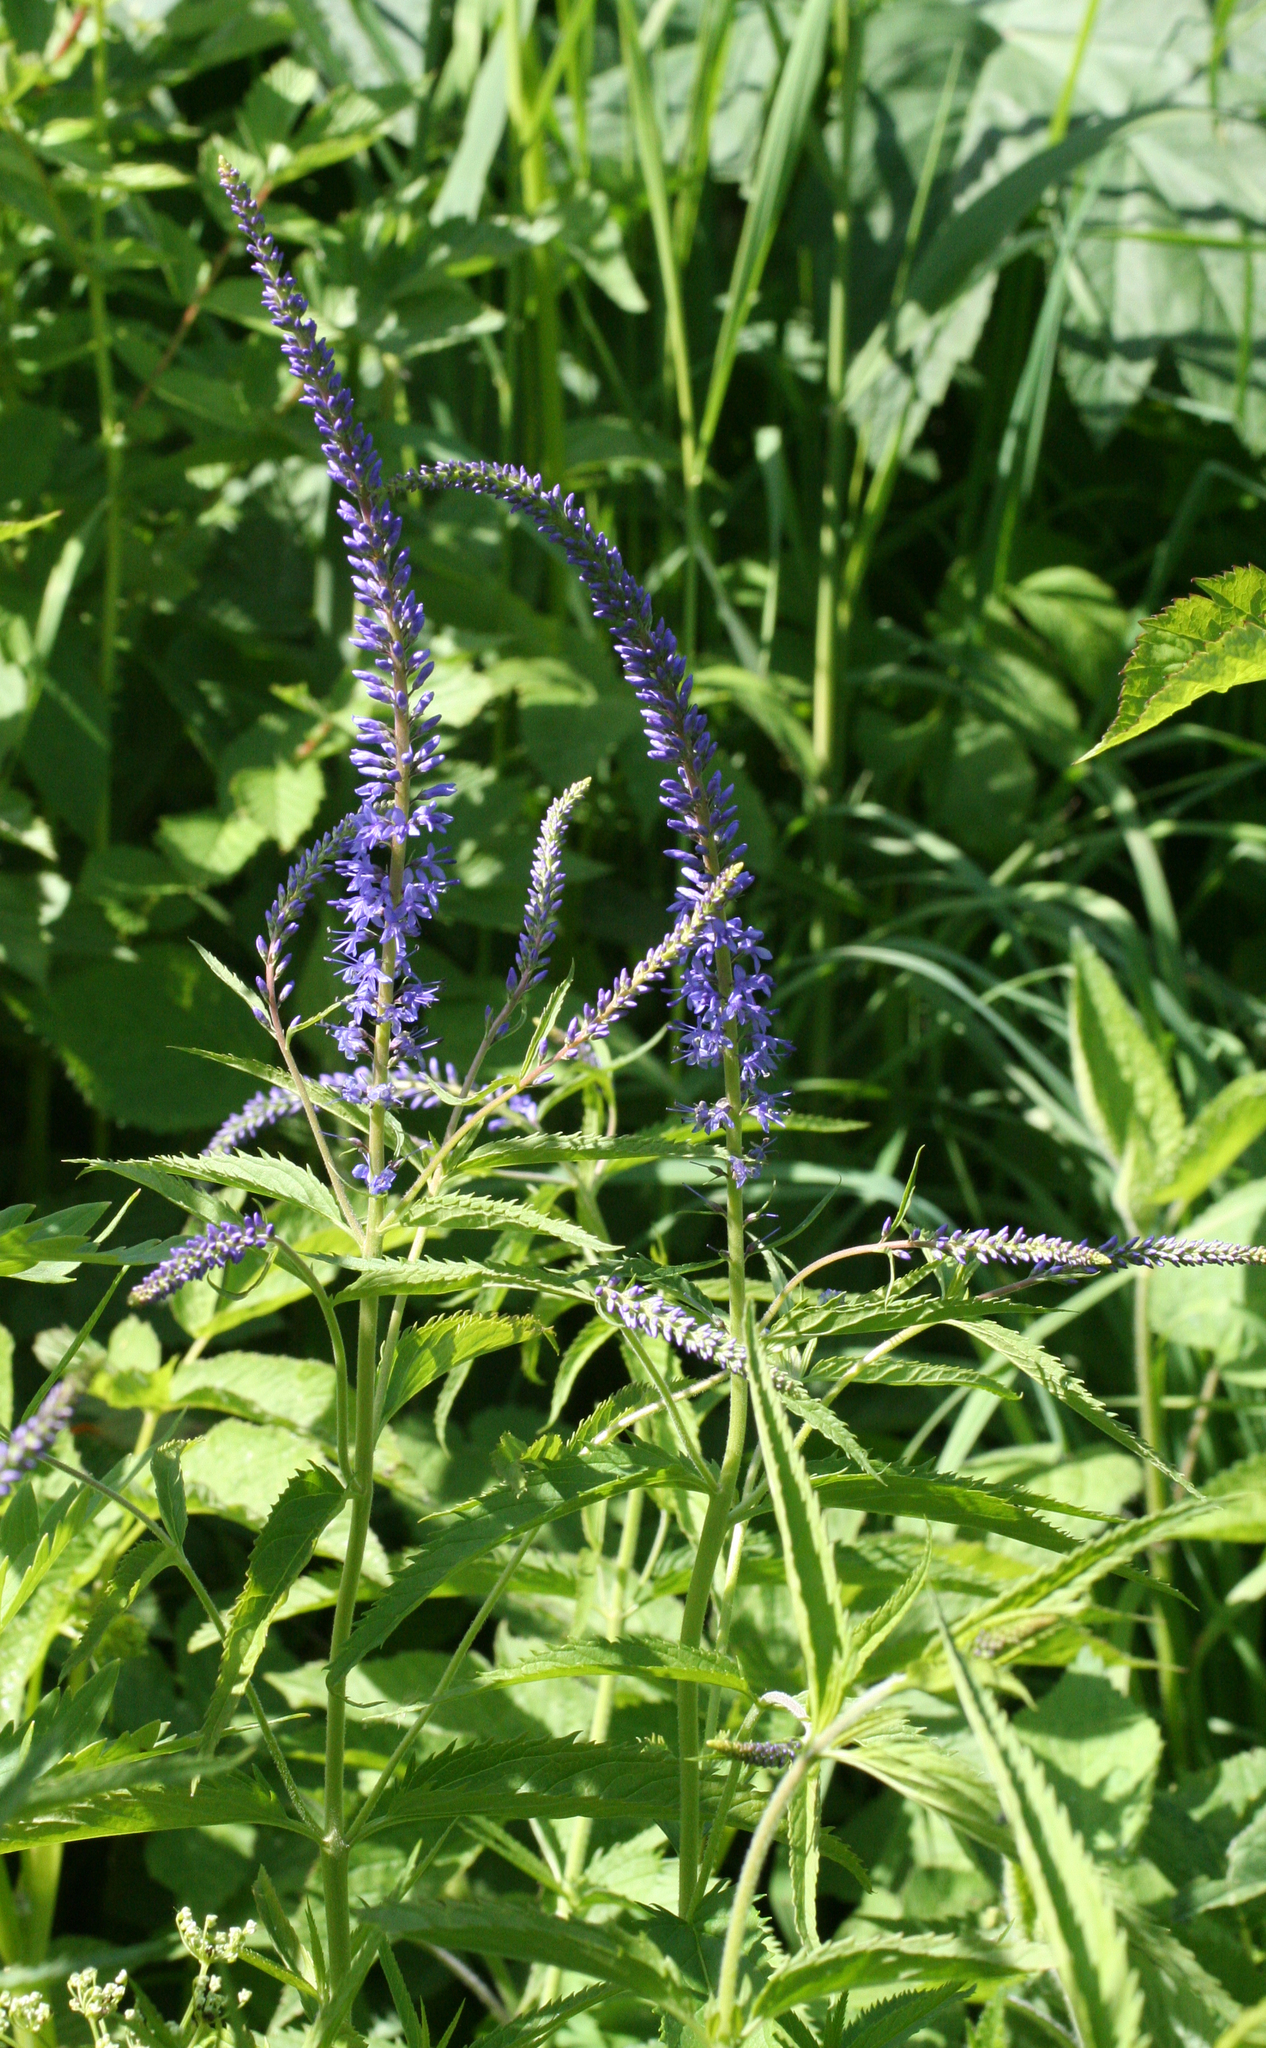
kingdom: Plantae
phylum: Tracheophyta
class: Magnoliopsida
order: Lamiales
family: Plantaginaceae
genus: Veronica
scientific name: Veronica longifolia
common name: Garden speedwell
